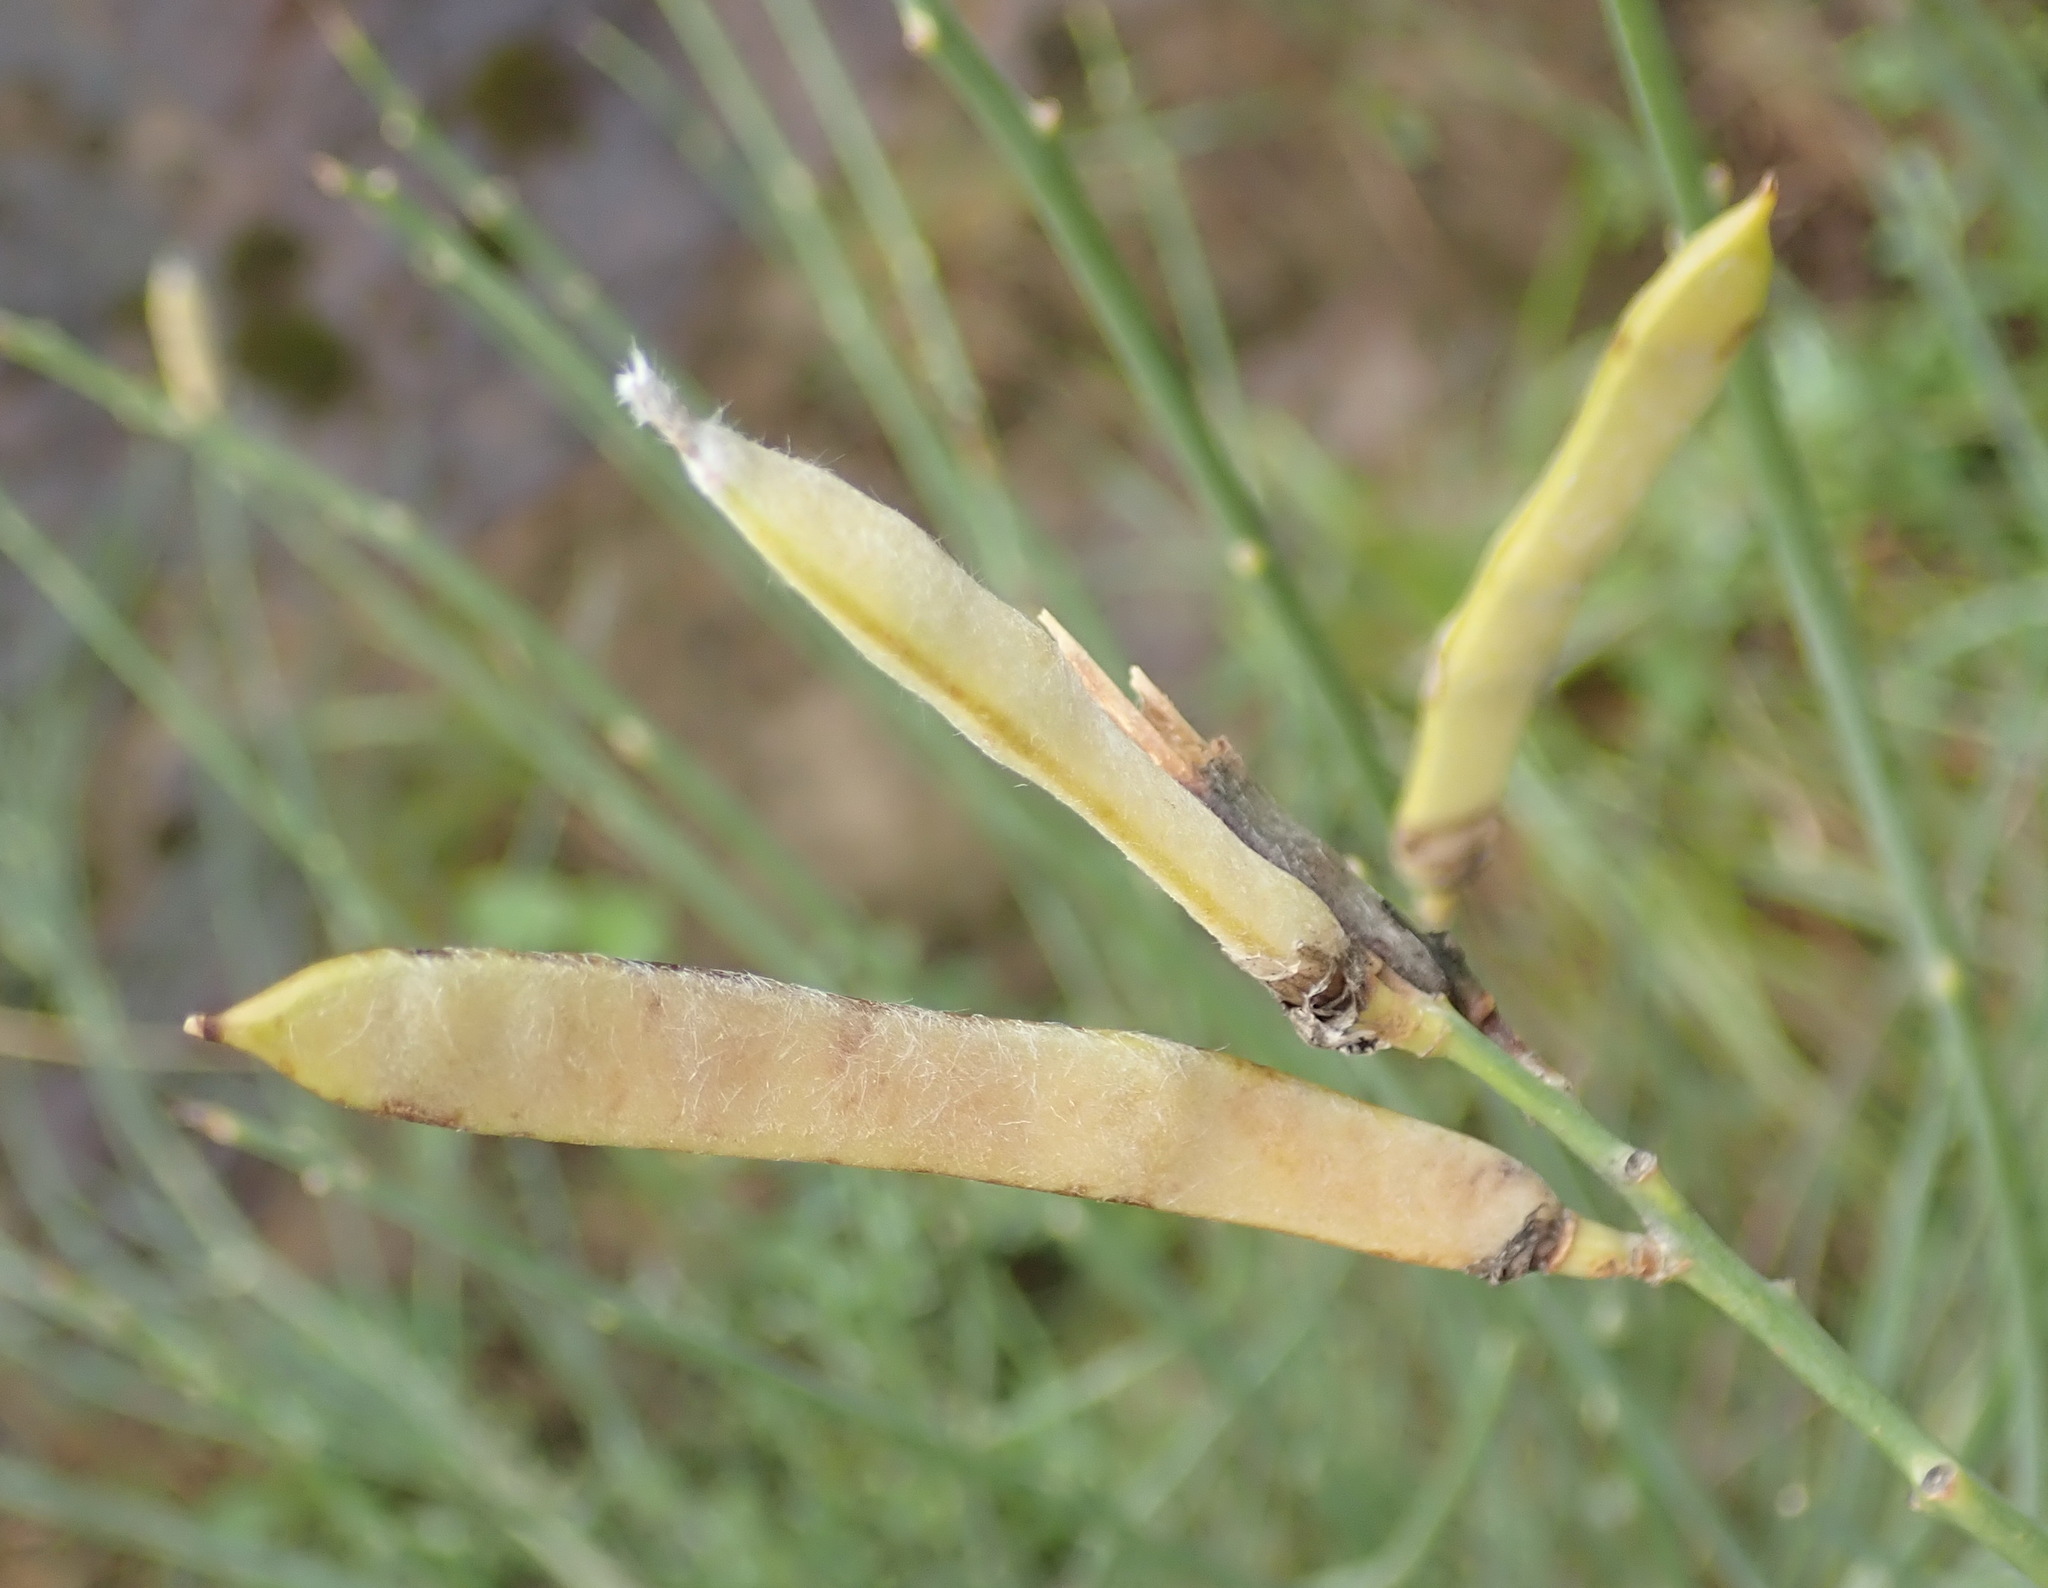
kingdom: Plantae
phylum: Tracheophyta
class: Magnoliopsida
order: Fabales
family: Fabaceae
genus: Spartium
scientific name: Spartium junceum
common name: Spanish broom
